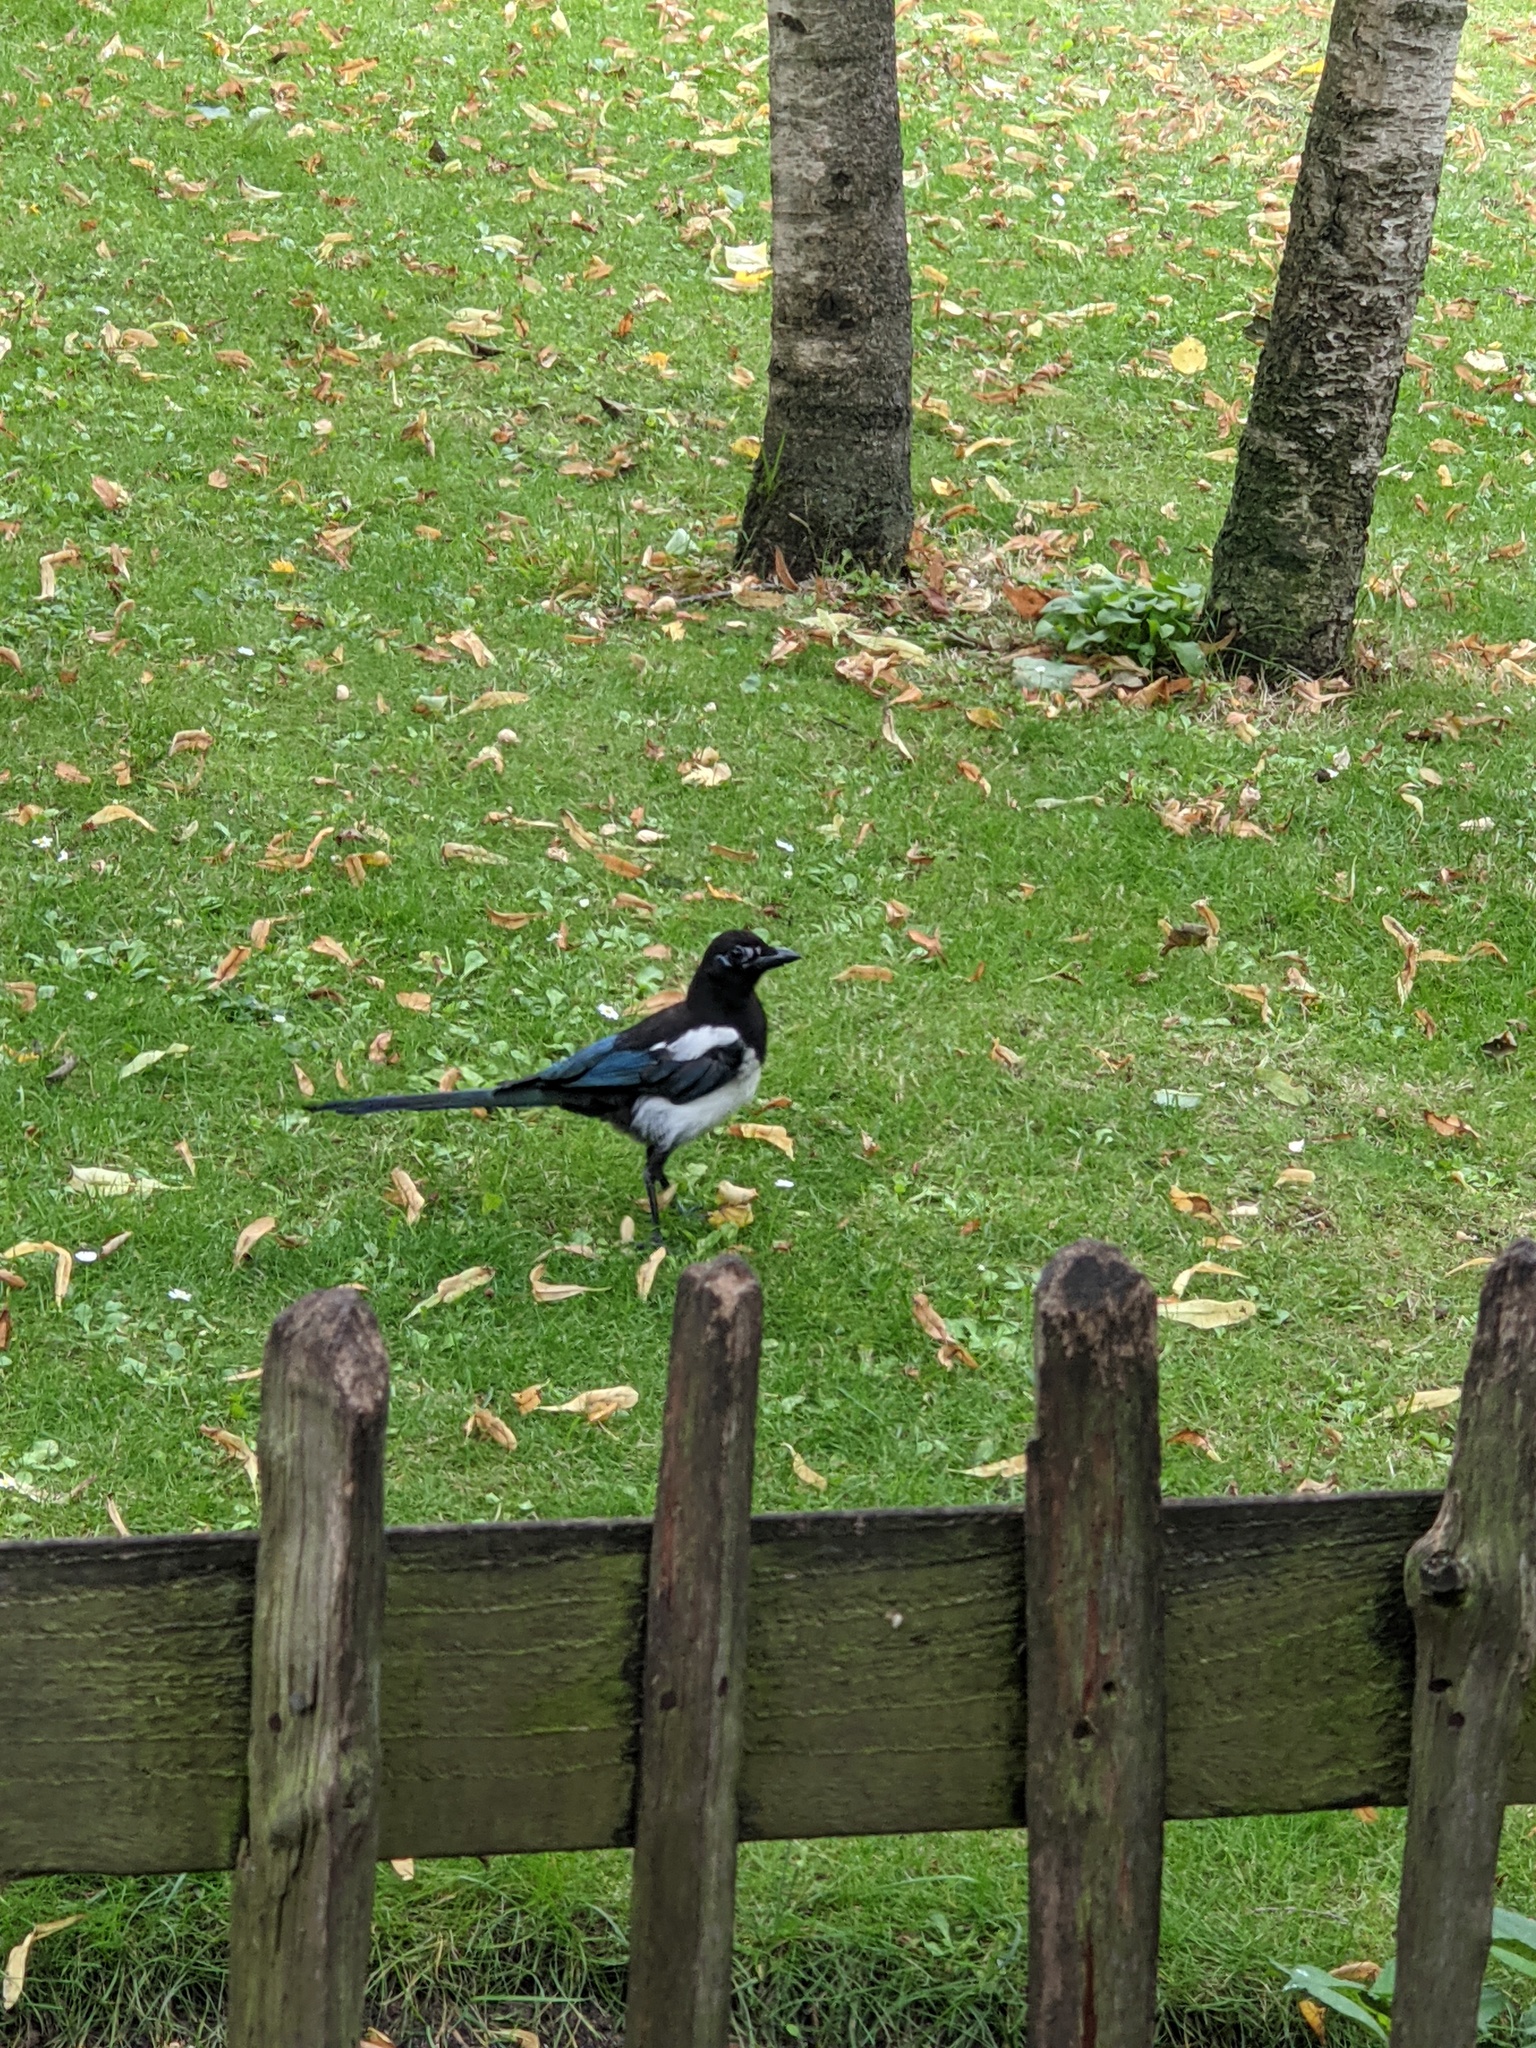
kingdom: Animalia
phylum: Chordata
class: Aves
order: Passeriformes
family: Corvidae
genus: Pica
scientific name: Pica pica
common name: Eurasian magpie
